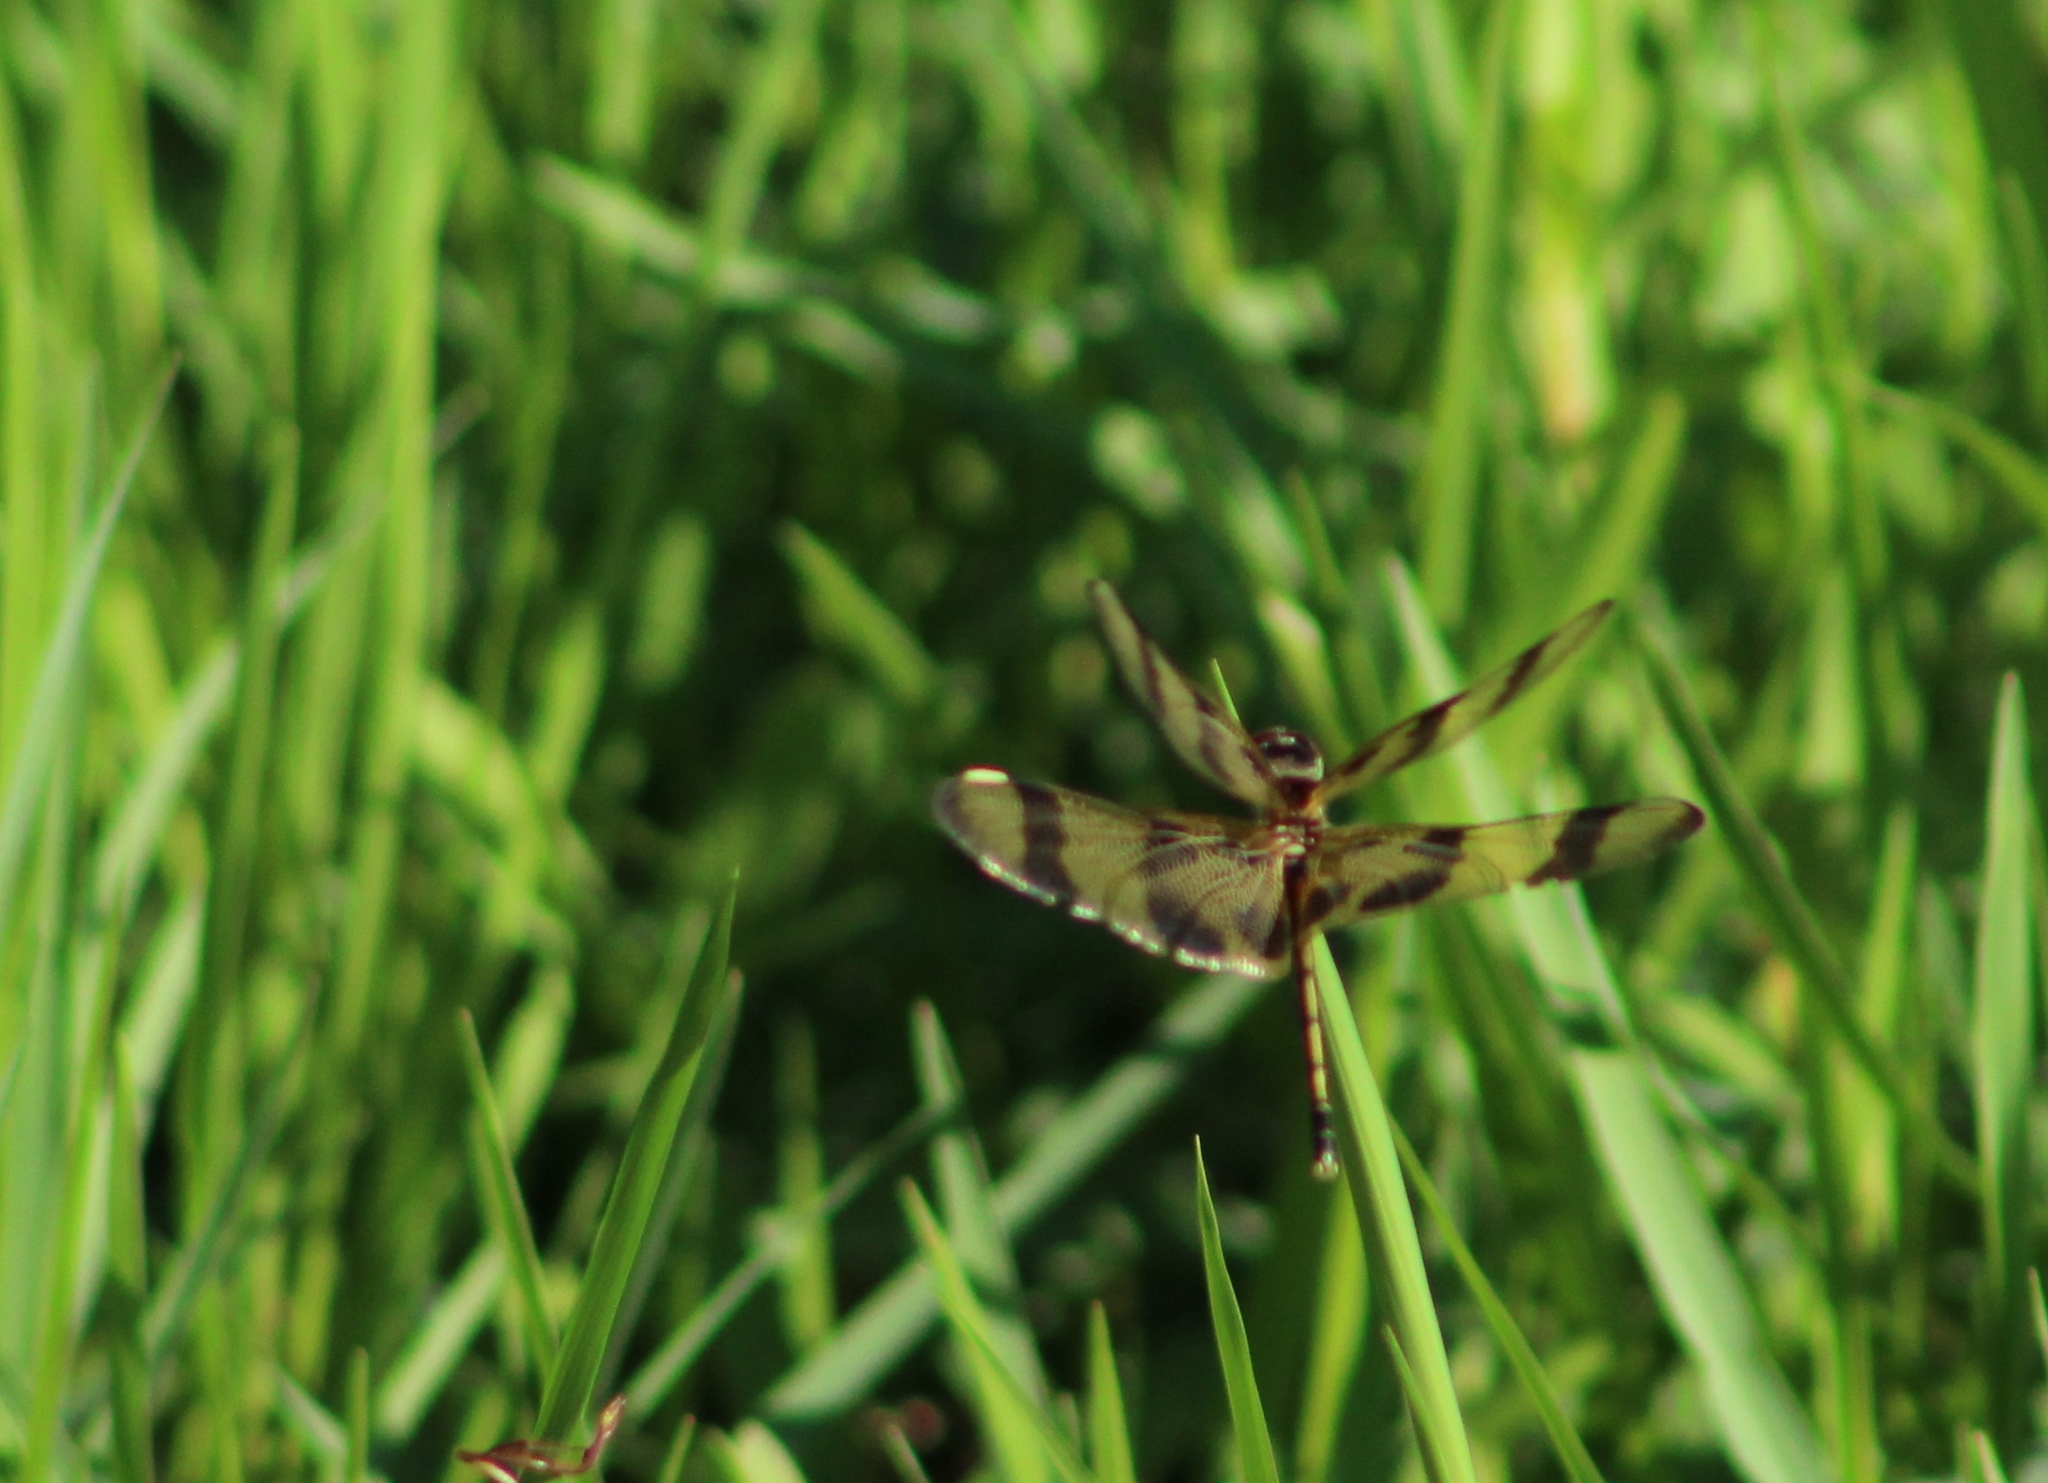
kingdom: Animalia
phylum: Arthropoda
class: Insecta
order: Odonata
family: Libellulidae
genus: Celithemis
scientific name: Celithemis eponina
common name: Halloween pennant
